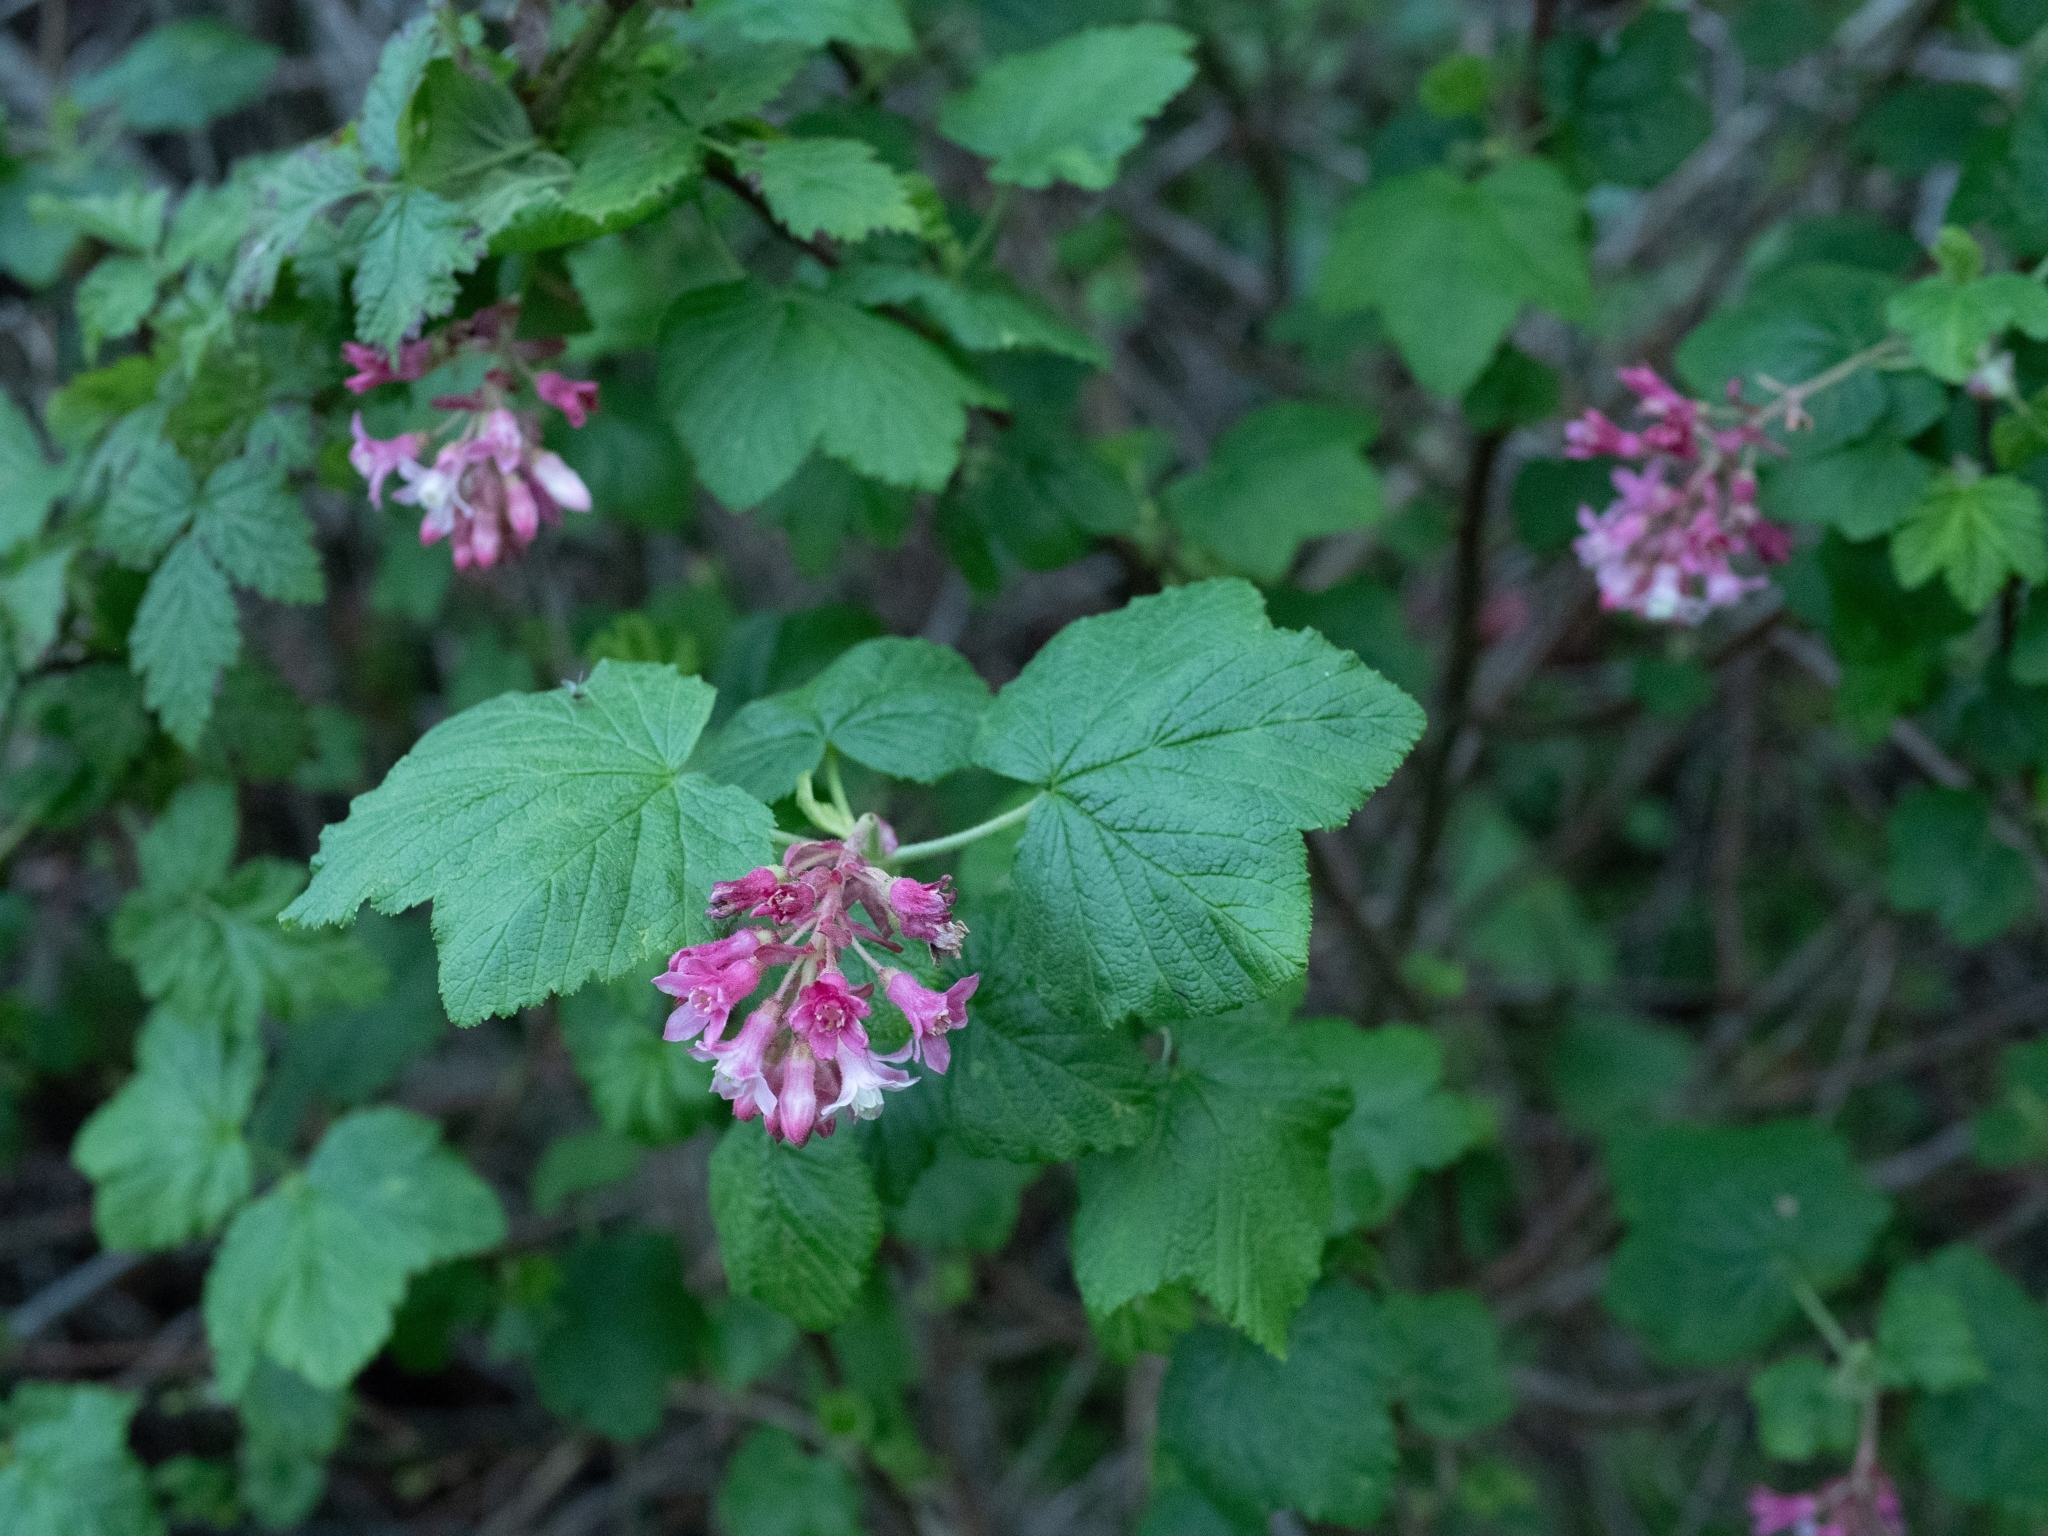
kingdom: Plantae
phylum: Tracheophyta
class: Magnoliopsida
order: Saxifragales
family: Grossulariaceae
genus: Ribes
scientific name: Ribes sanguineum
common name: Flowering currant
